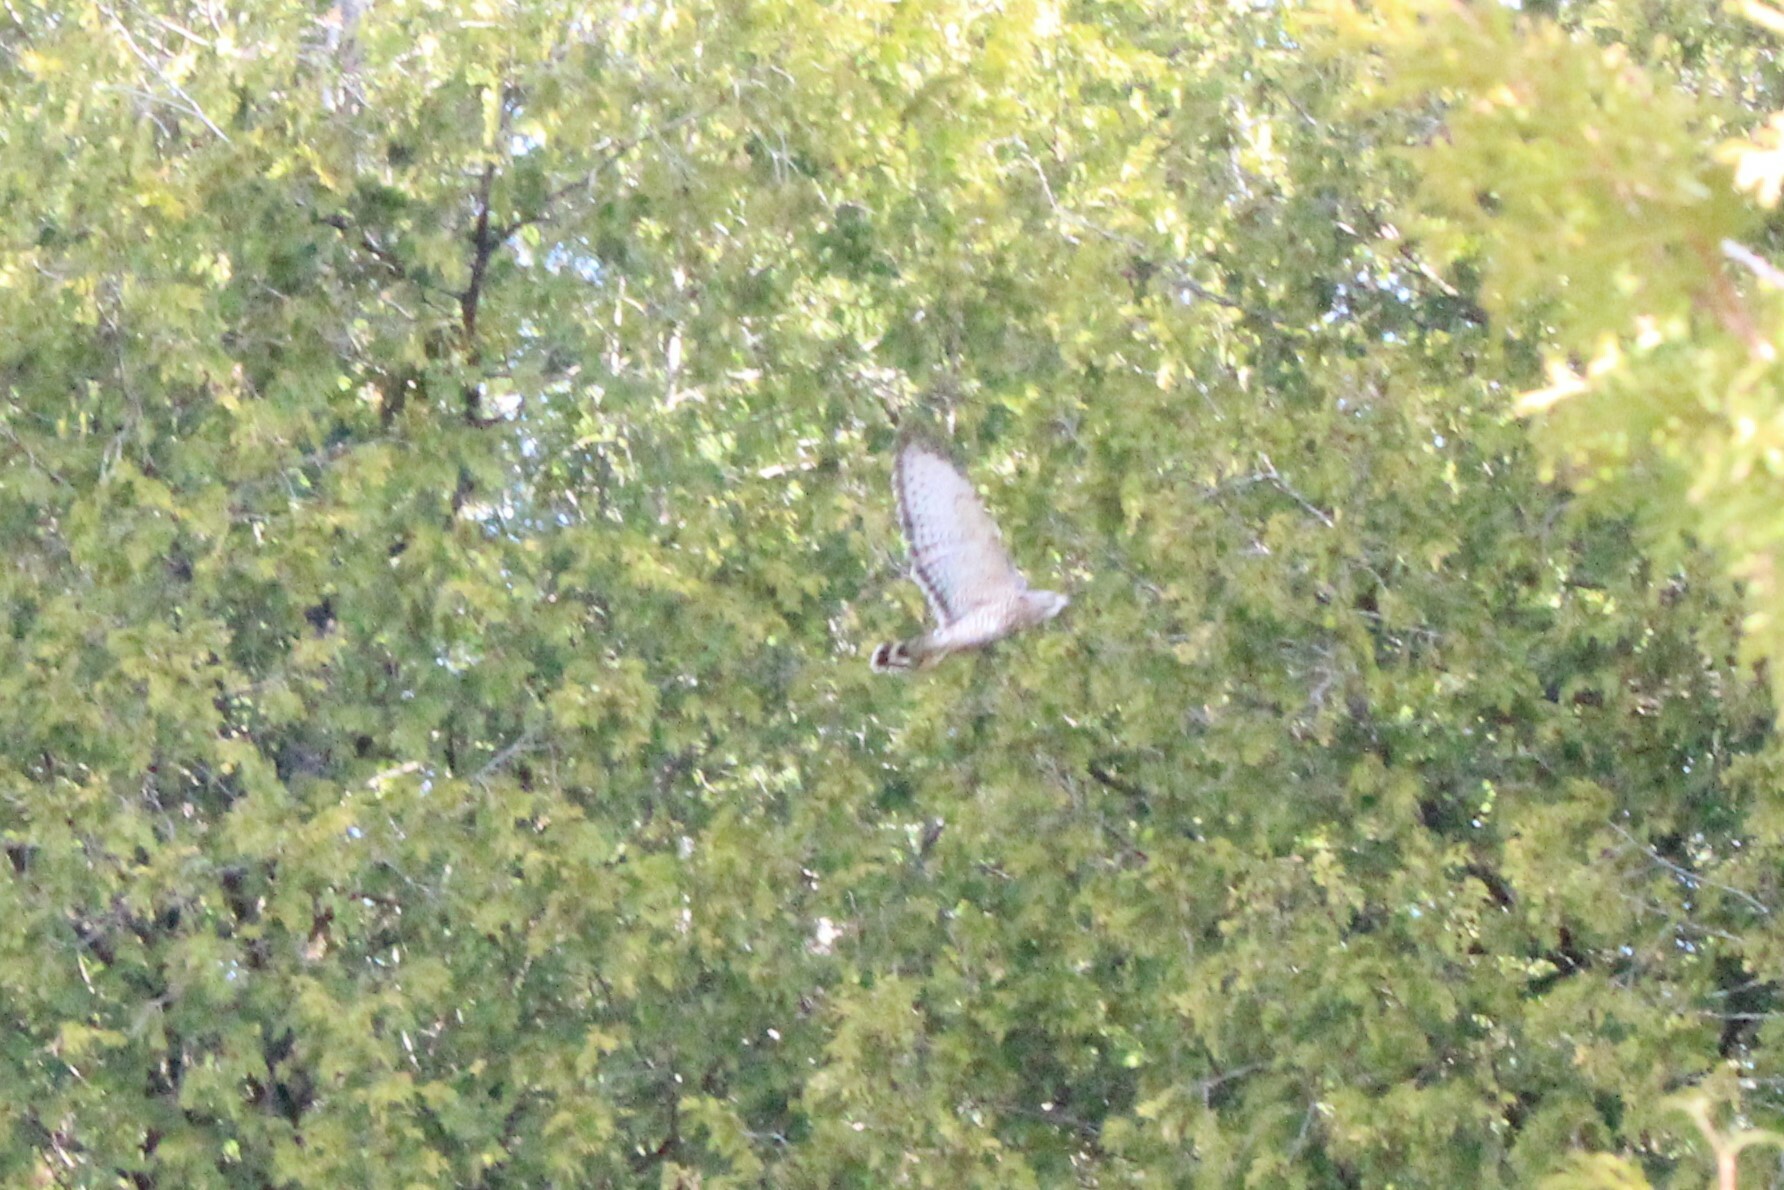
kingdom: Animalia
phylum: Chordata
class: Aves
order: Accipitriformes
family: Accipitridae
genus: Buteo
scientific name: Buteo platypterus
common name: Broad-winged hawk
